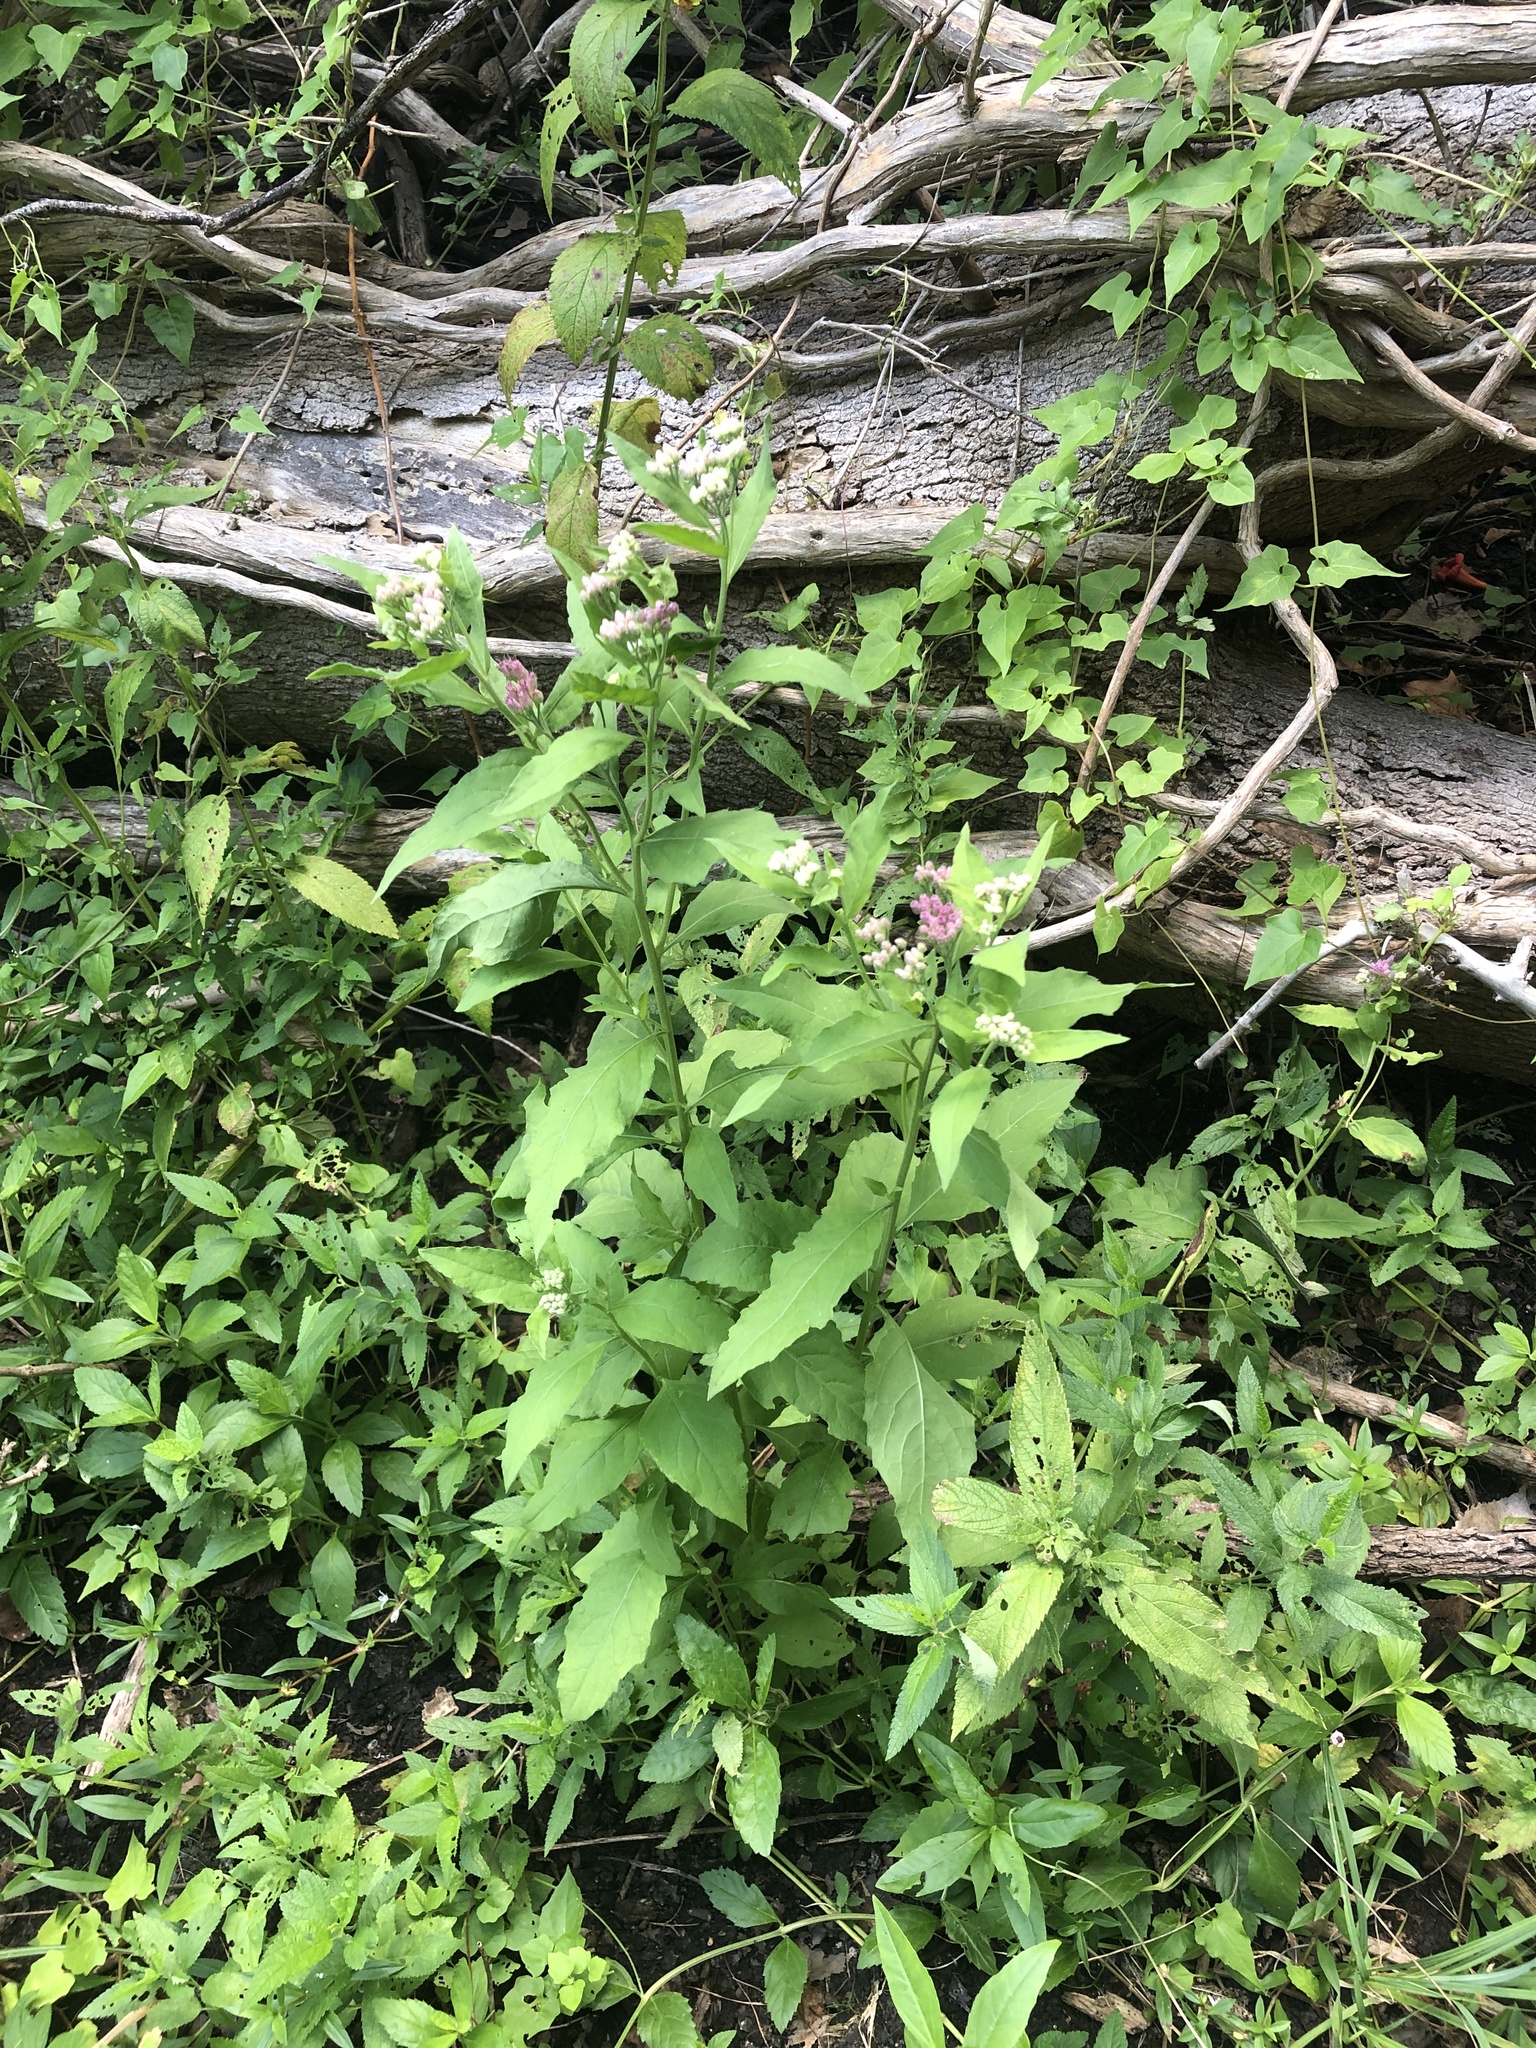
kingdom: Plantae
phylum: Tracheophyta
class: Magnoliopsida
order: Asterales
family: Asteraceae
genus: Pluchea
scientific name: Pluchea odorata
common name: Saltmarsh fleabane
